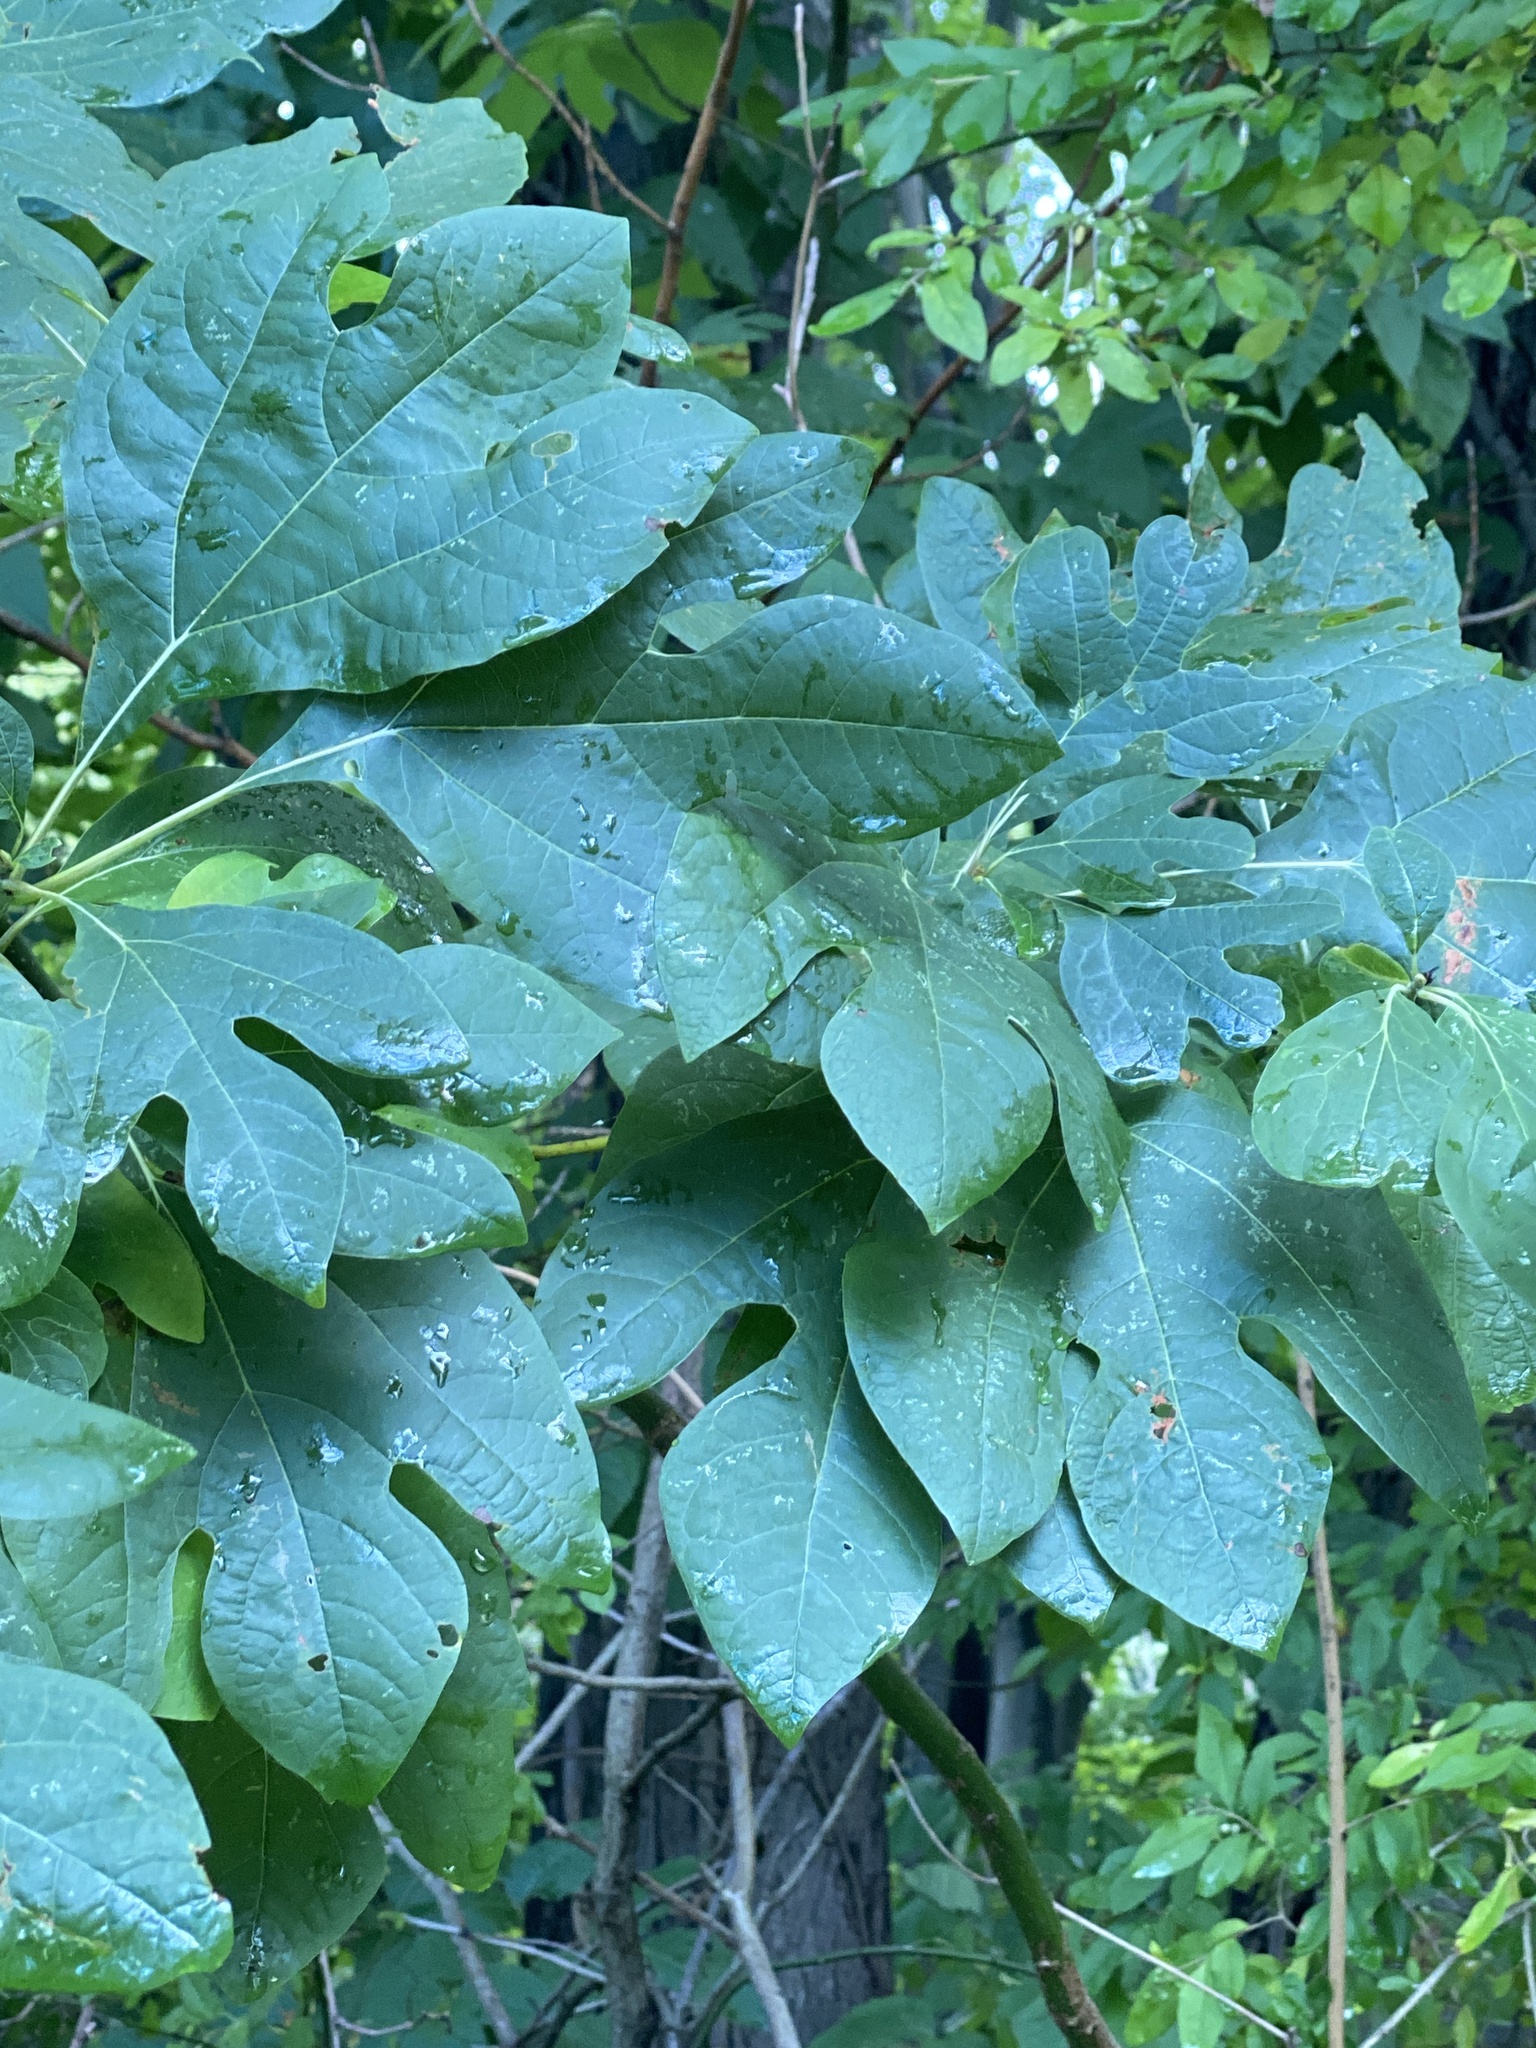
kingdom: Plantae
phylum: Tracheophyta
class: Magnoliopsida
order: Laurales
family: Lauraceae
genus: Sassafras
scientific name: Sassafras albidum
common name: Sassafras
